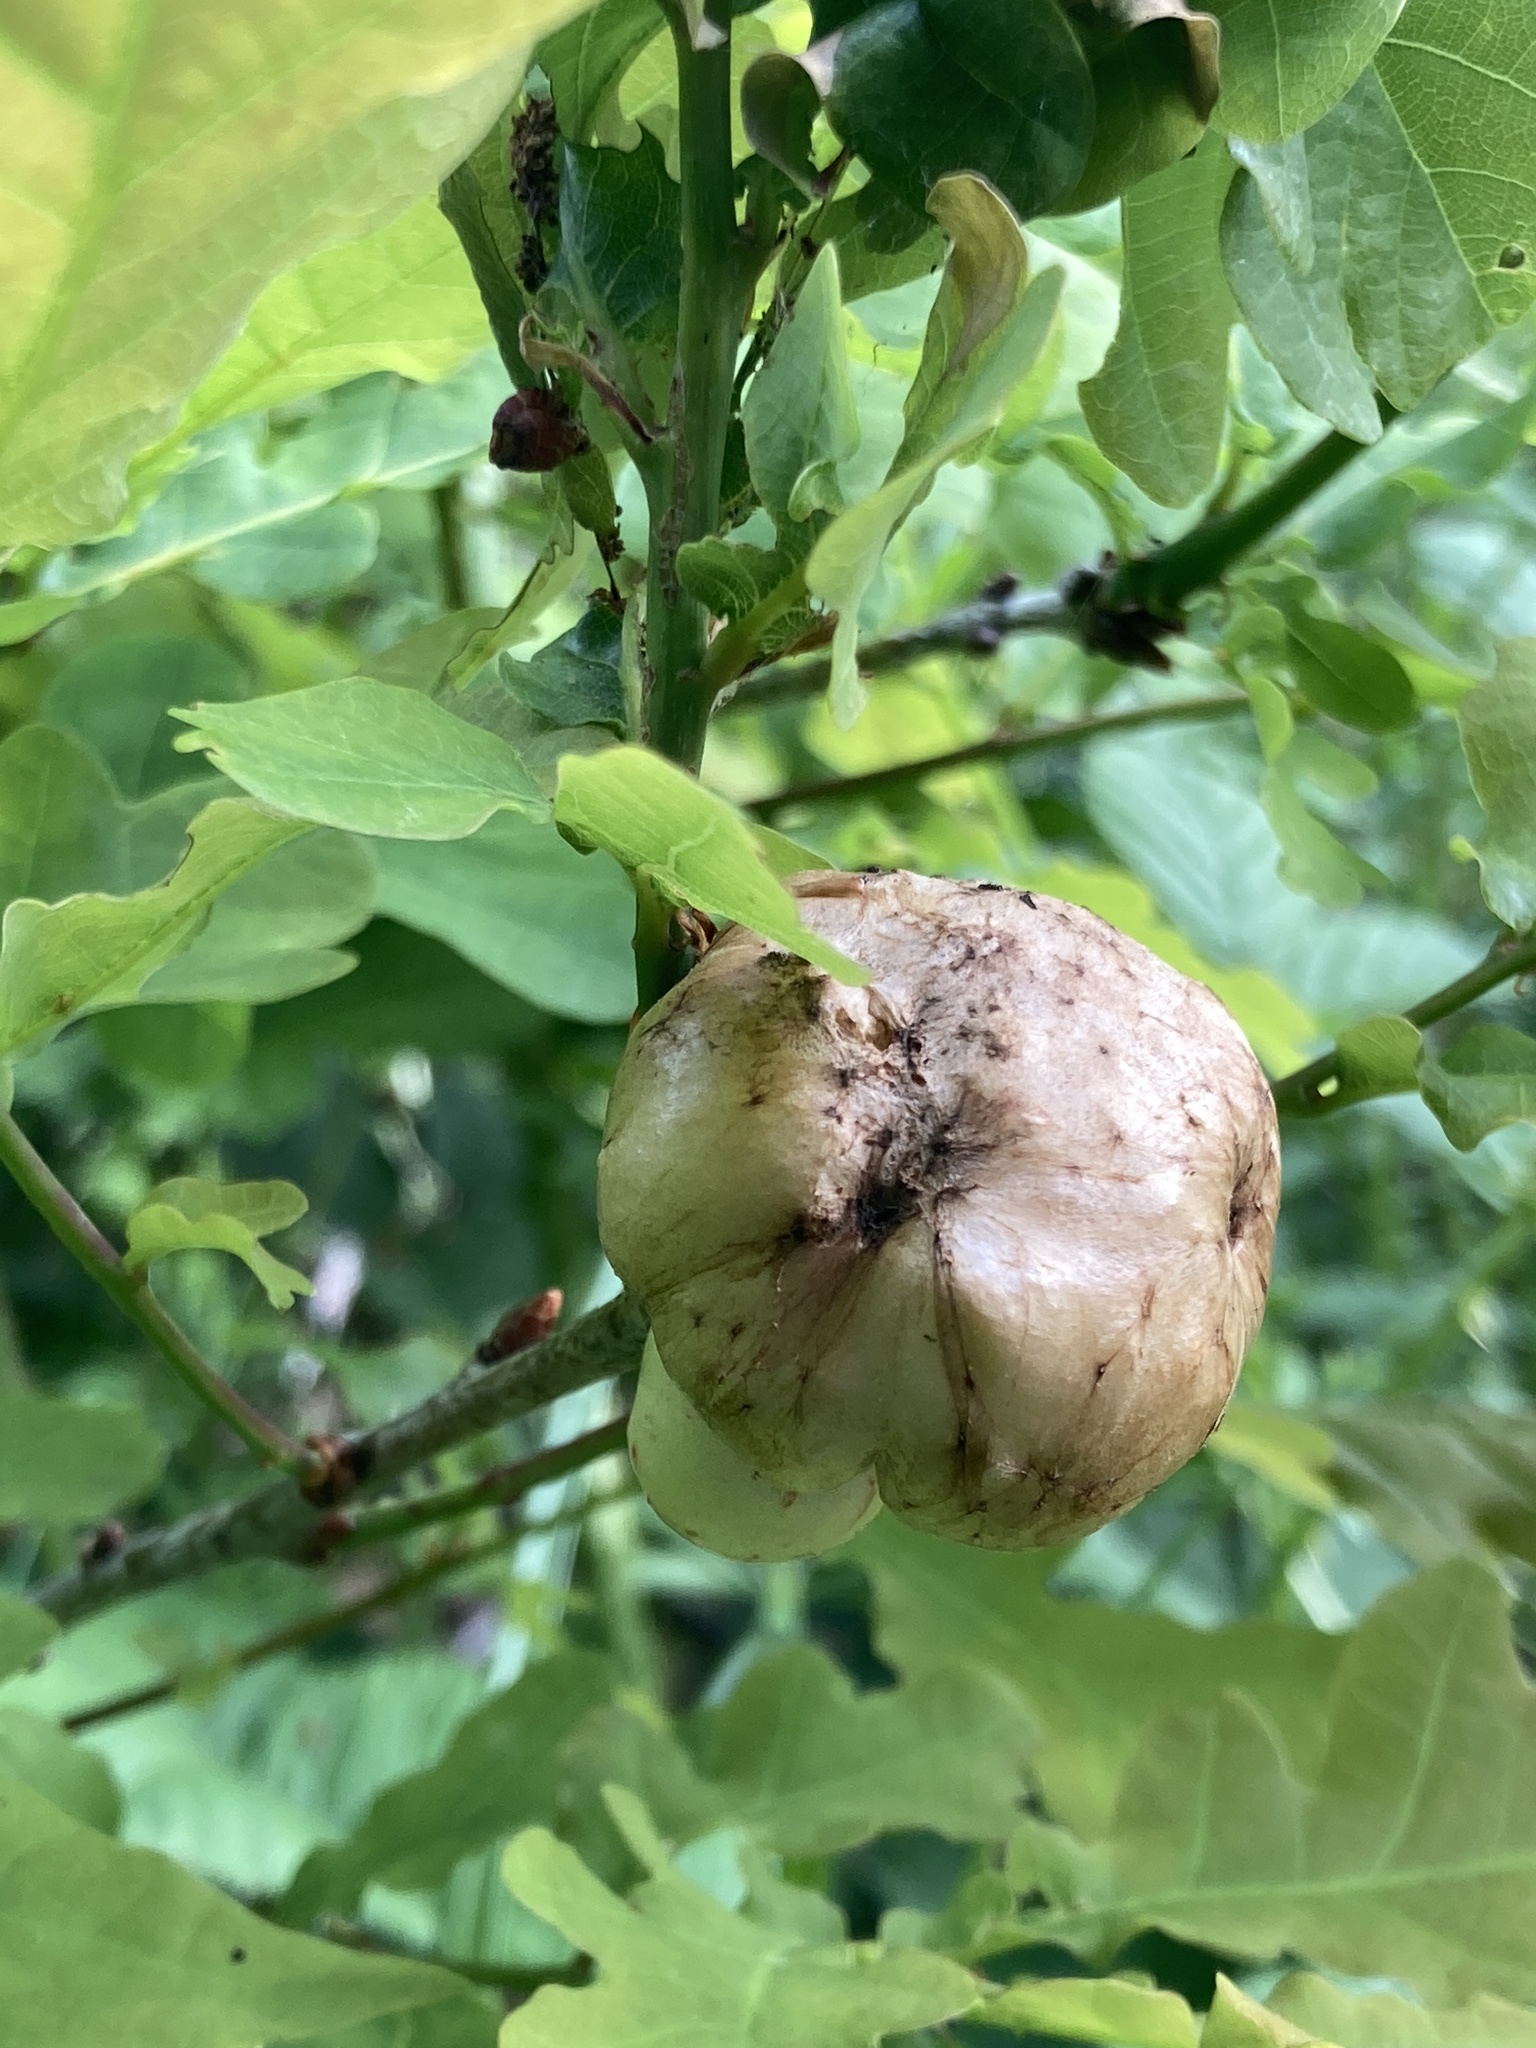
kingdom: Animalia
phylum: Arthropoda
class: Insecta
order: Hymenoptera
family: Cynipidae
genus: Biorhiza
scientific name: Biorhiza pallida
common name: Oak apple
